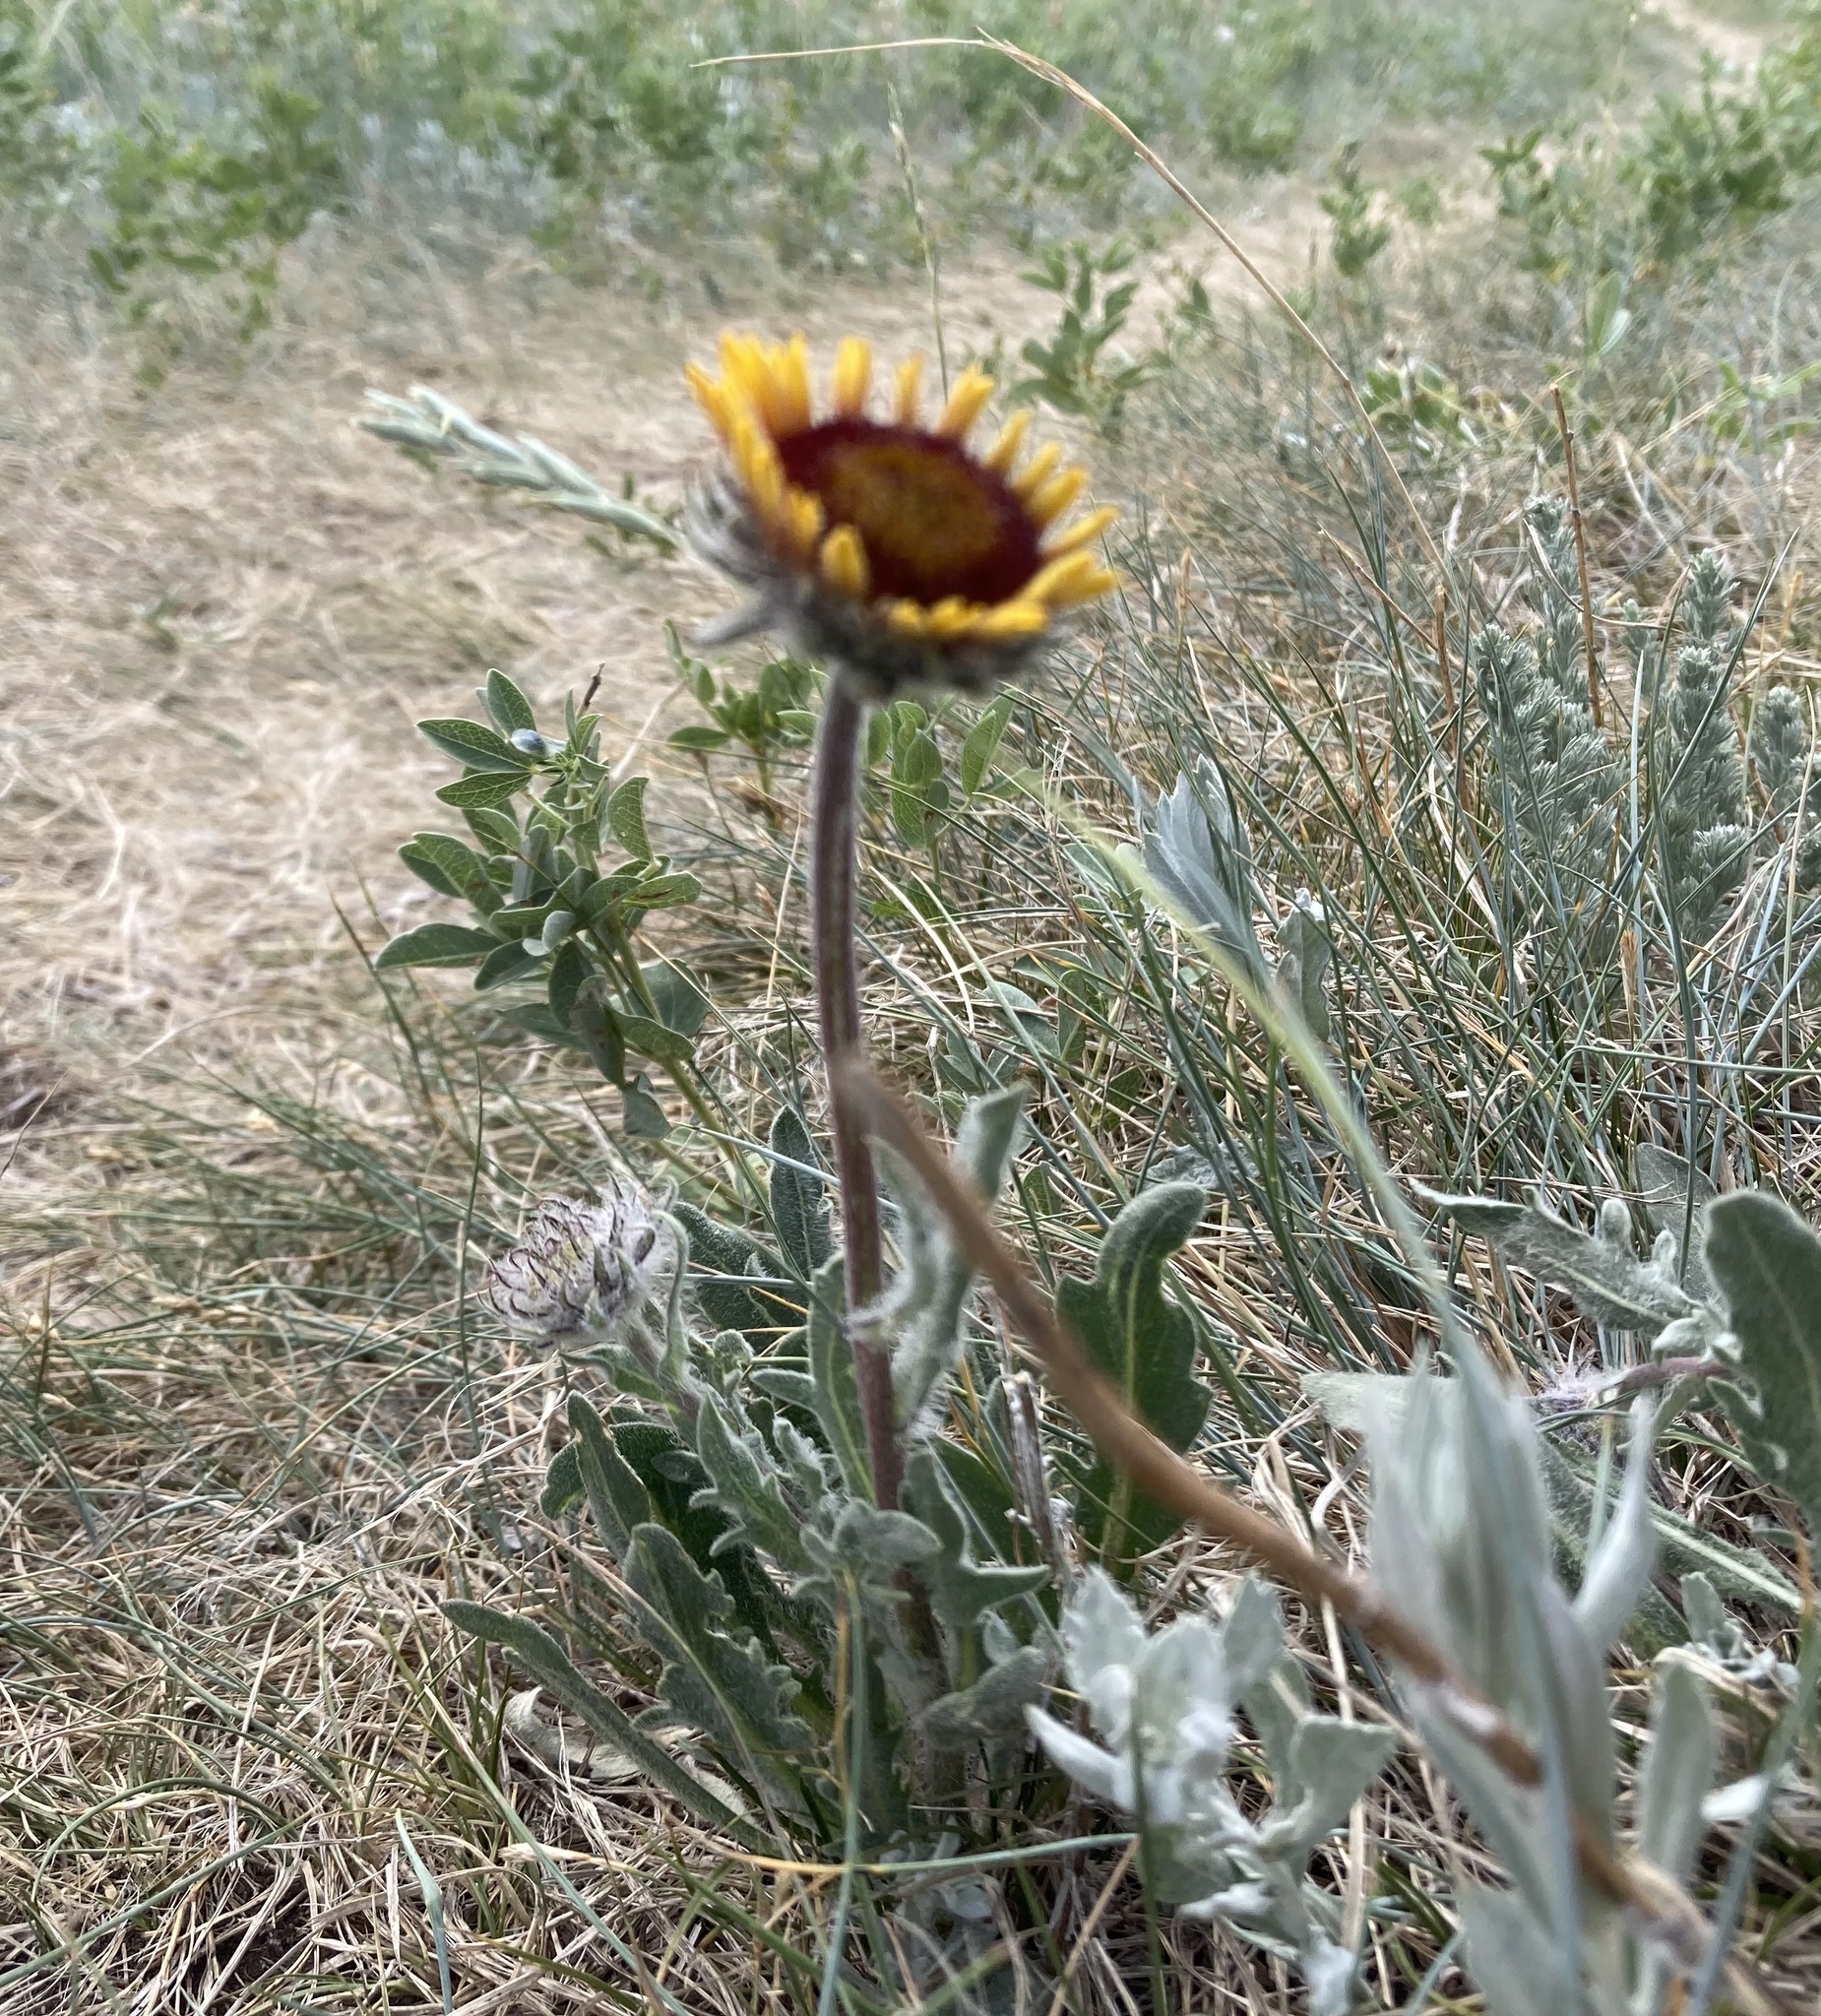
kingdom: Plantae
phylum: Tracheophyta
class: Magnoliopsida
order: Asterales
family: Asteraceae
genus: Gaillardia
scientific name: Gaillardia aristata
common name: Blanket-flower
